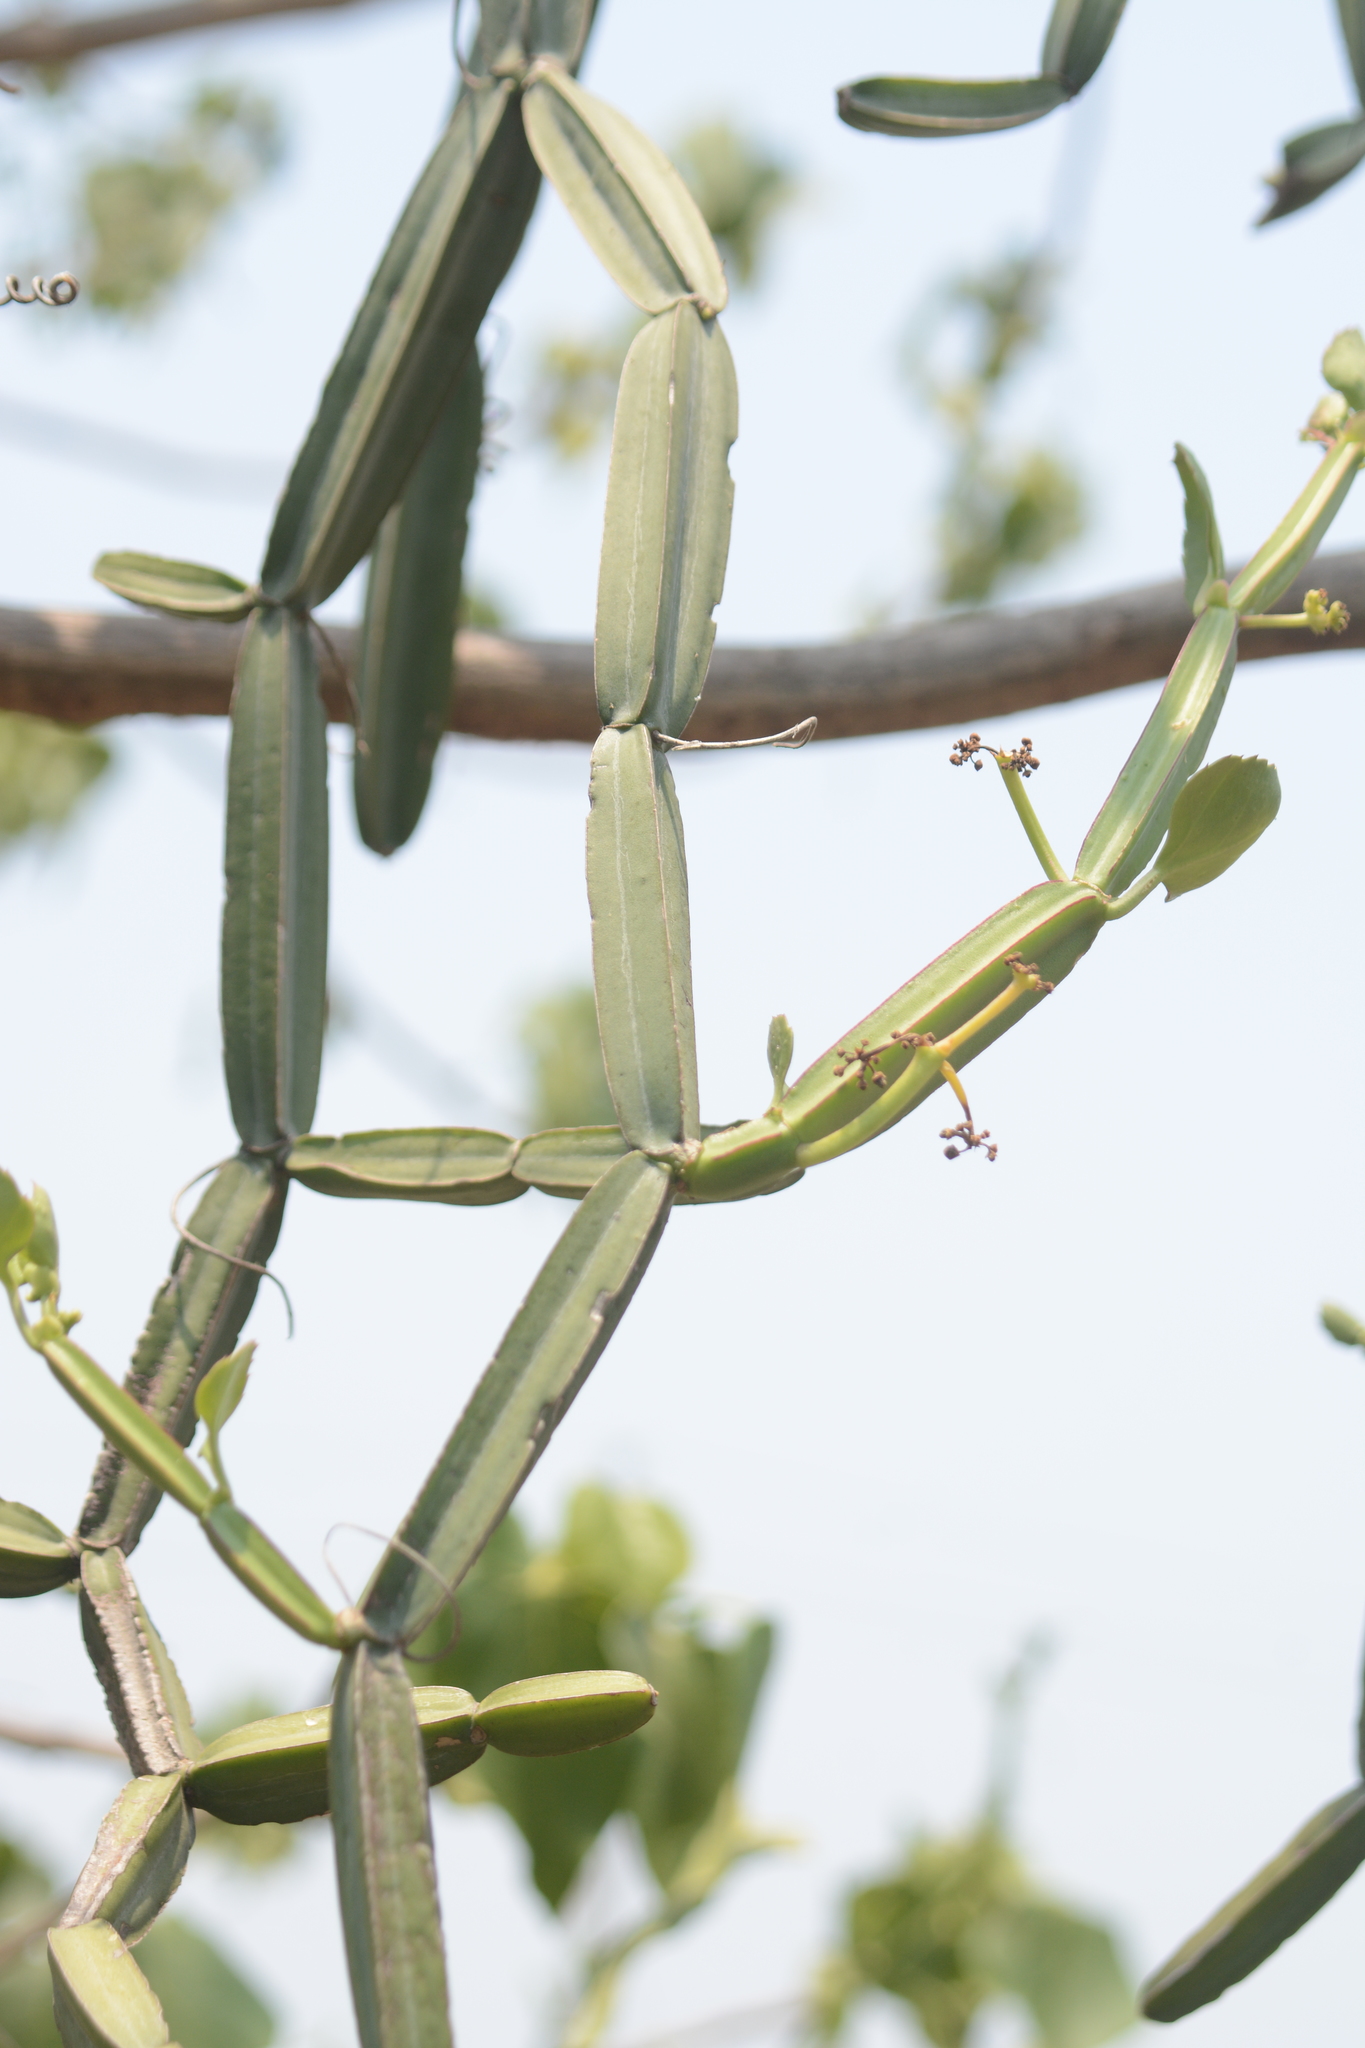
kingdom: Plantae
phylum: Tracheophyta
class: Magnoliopsida
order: Vitales
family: Vitaceae
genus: Cissus
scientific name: Cissus quadrangularis
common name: Veldt-grape
